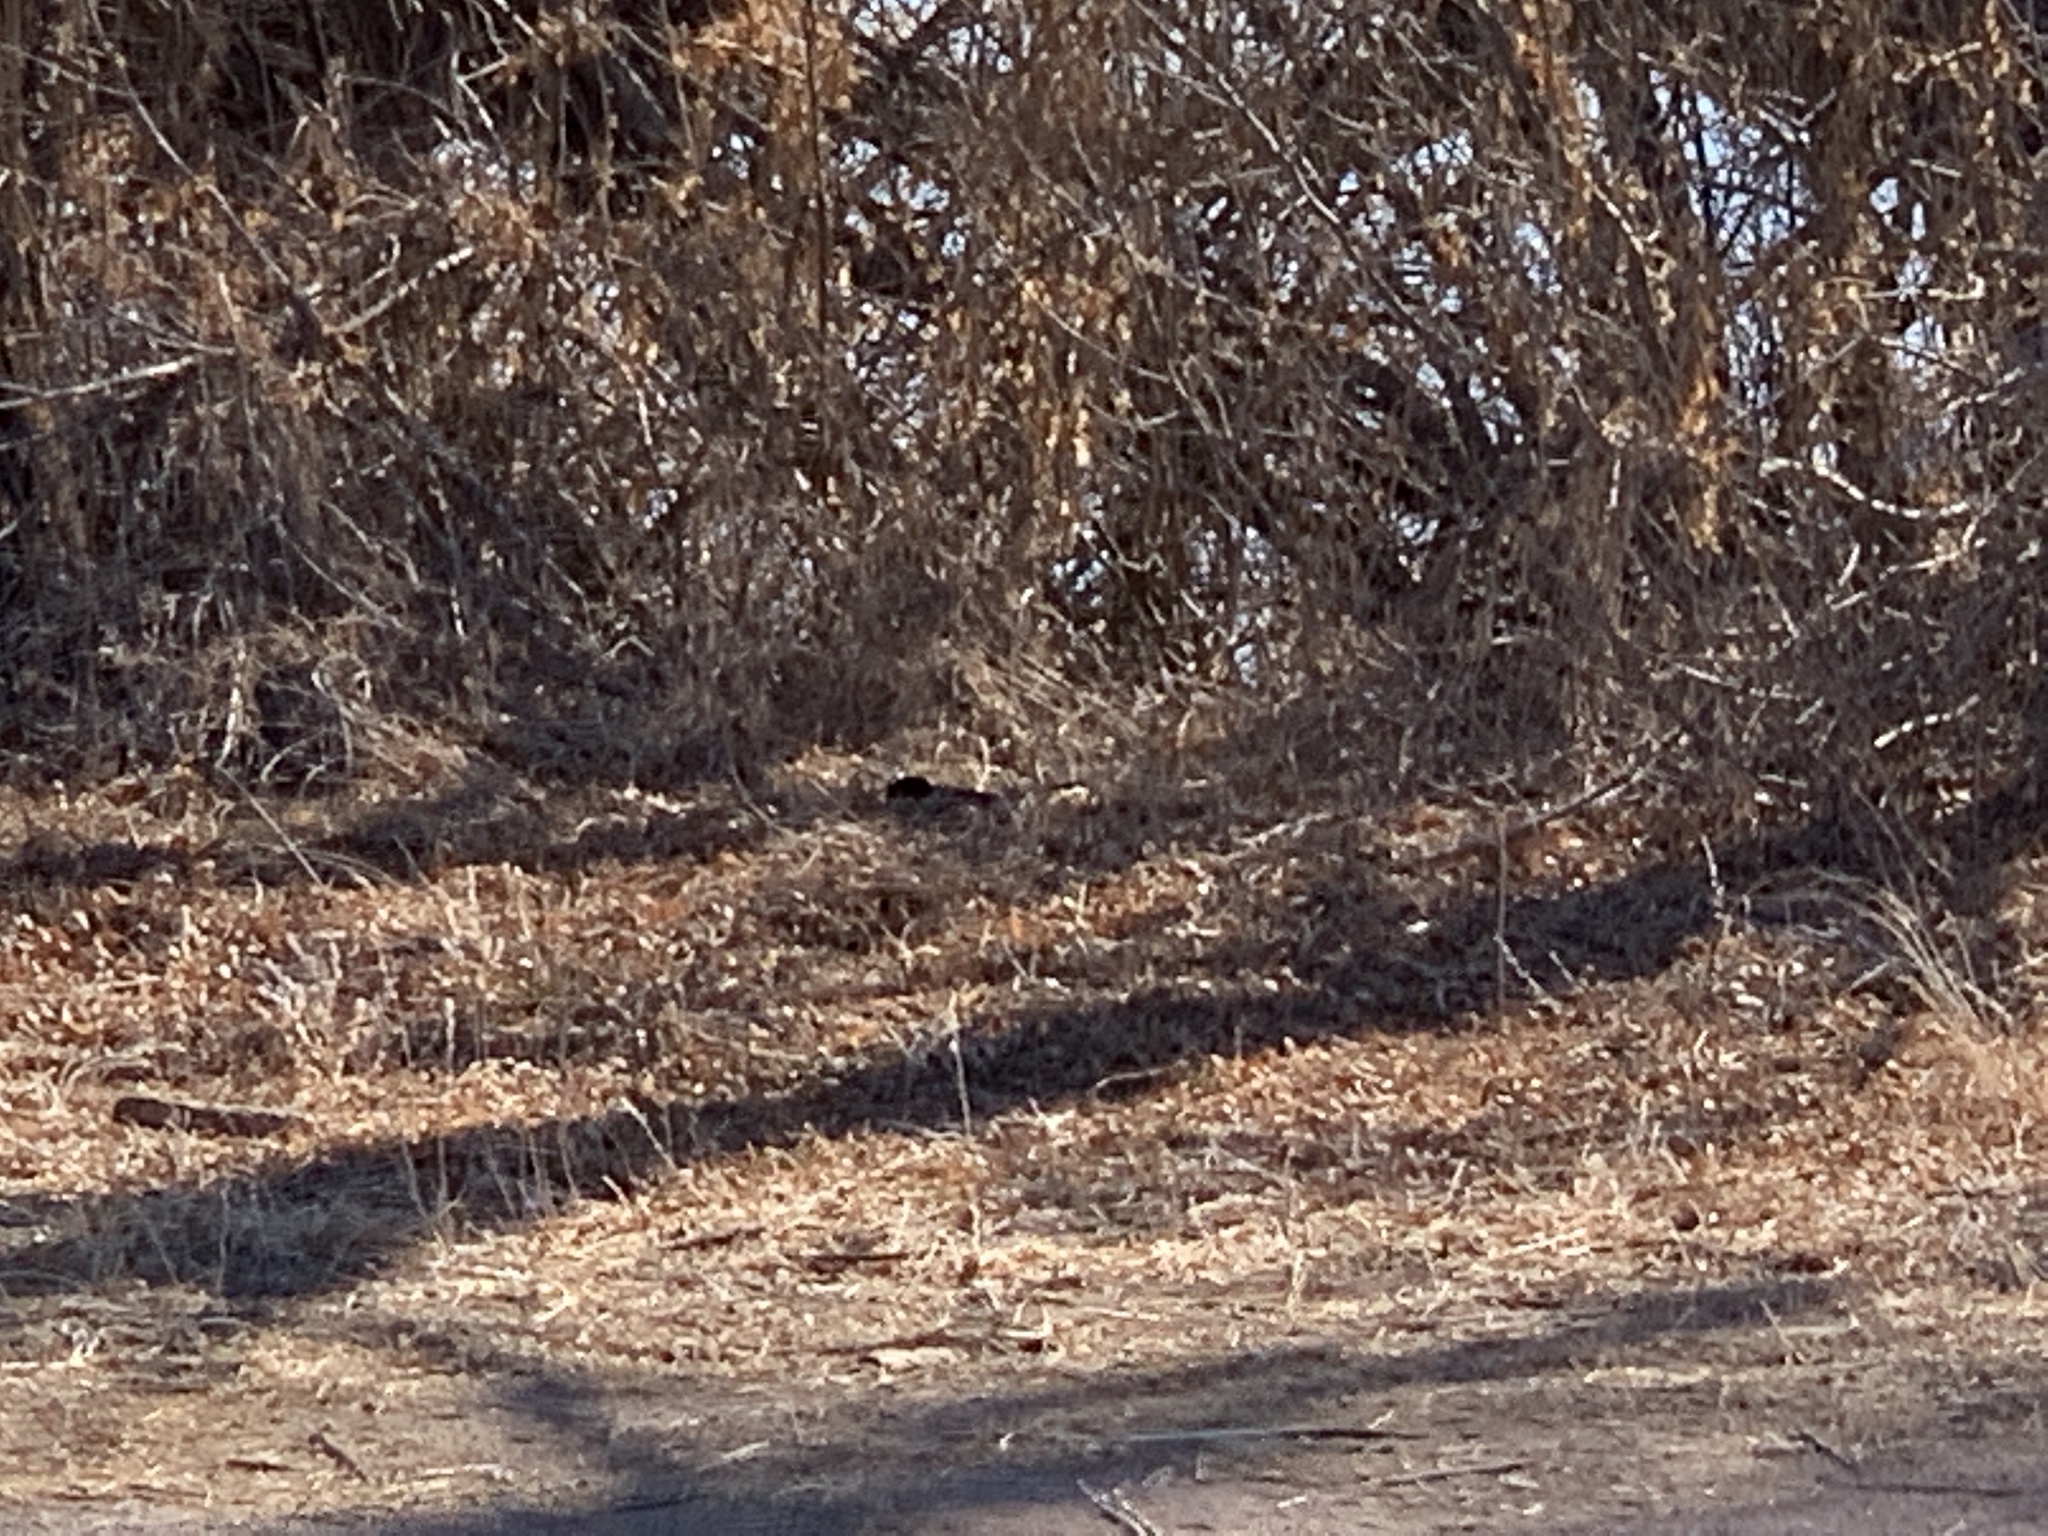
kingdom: Animalia
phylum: Chordata
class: Aves
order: Passeriformes
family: Passerellidae
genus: Pipilo
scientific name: Pipilo maculatus
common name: Spotted towhee
